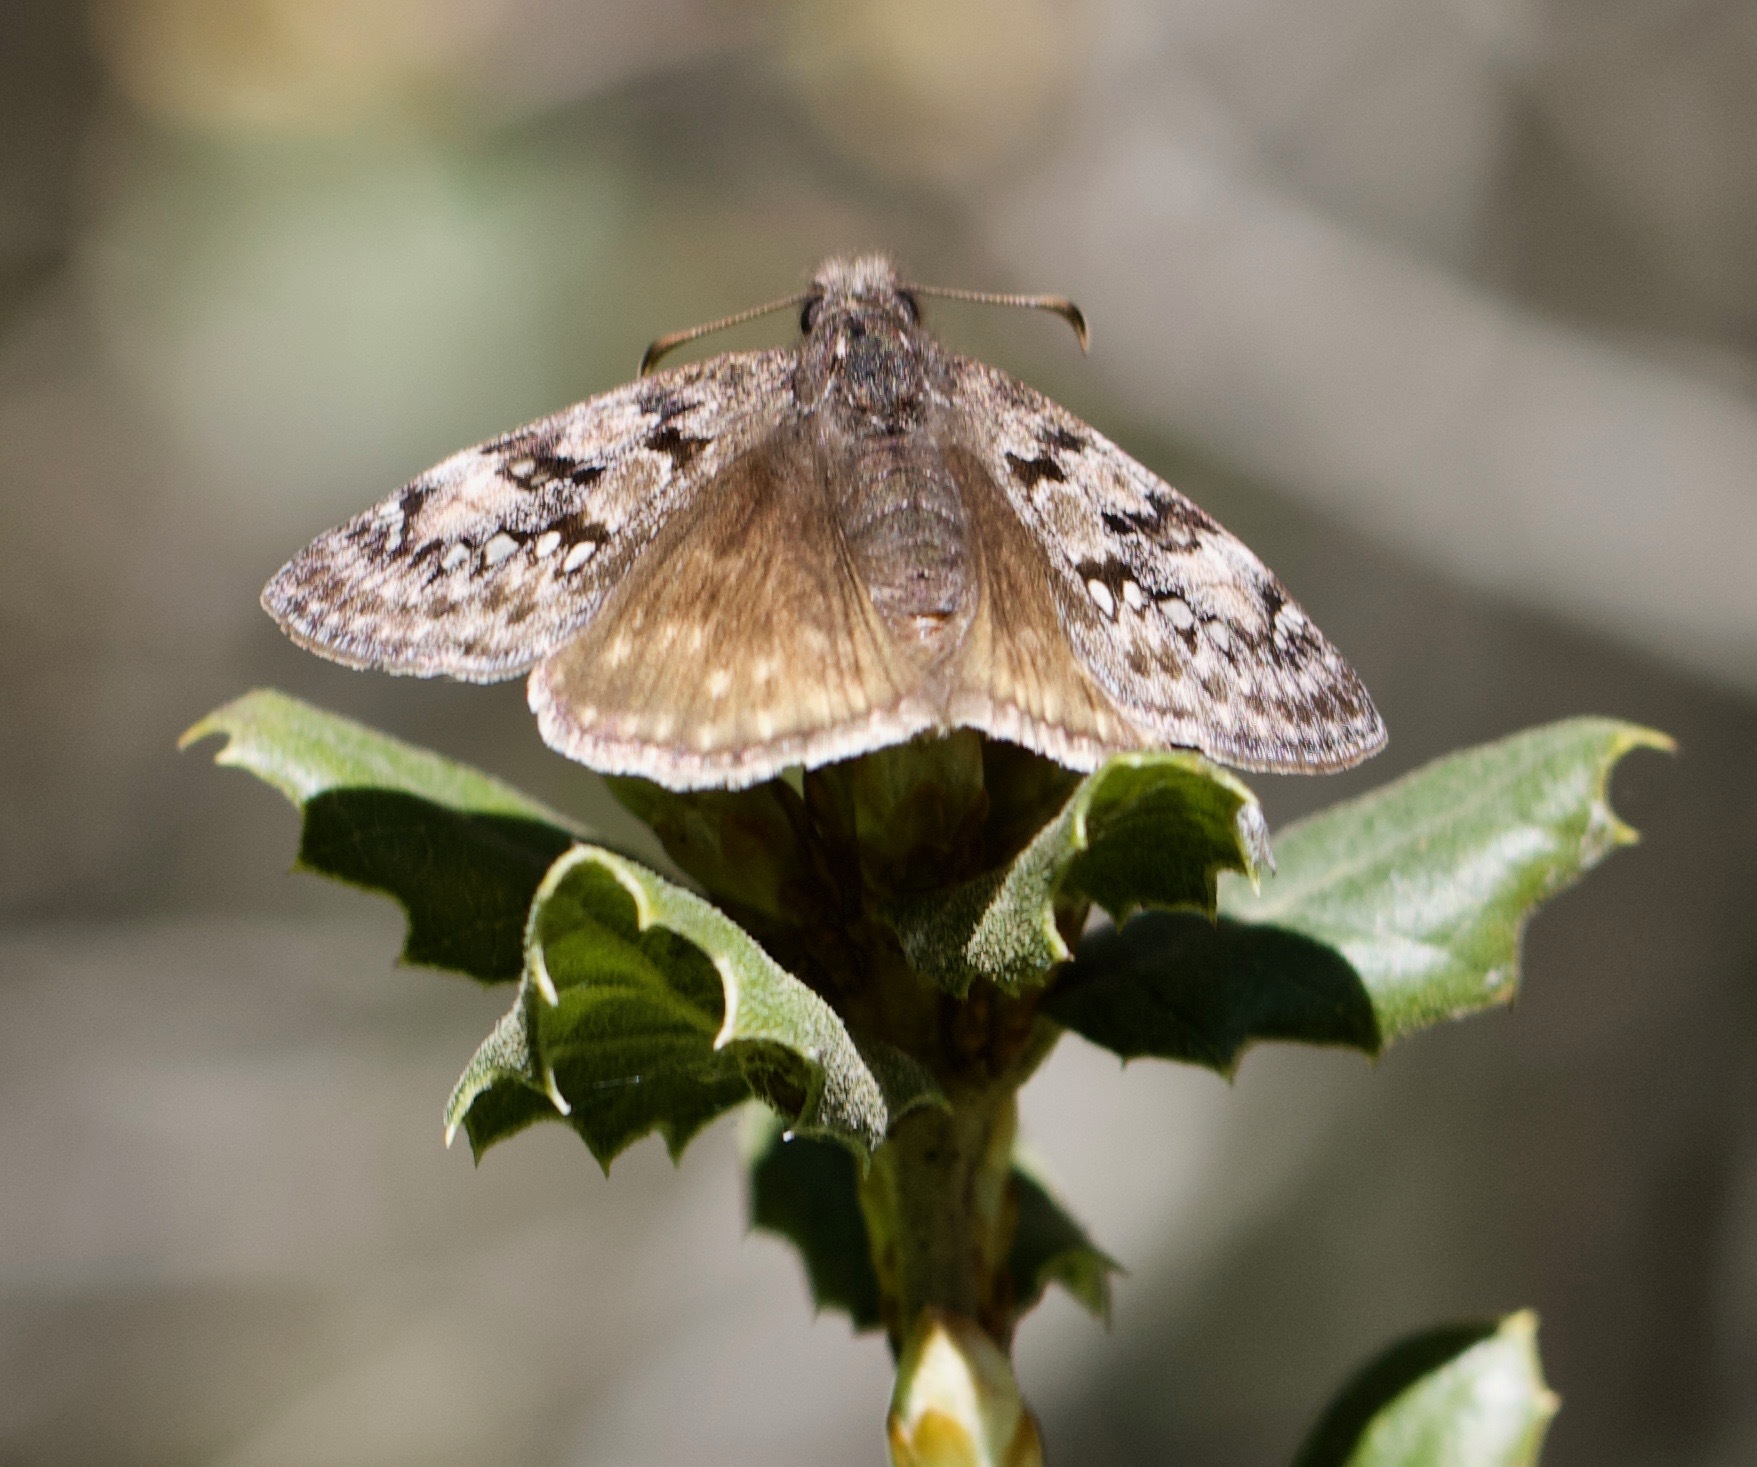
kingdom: Animalia
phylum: Arthropoda
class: Insecta
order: Lepidoptera
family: Hesperiidae
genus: Erynnis
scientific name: Erynnis propertius
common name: Propertius duskywing
